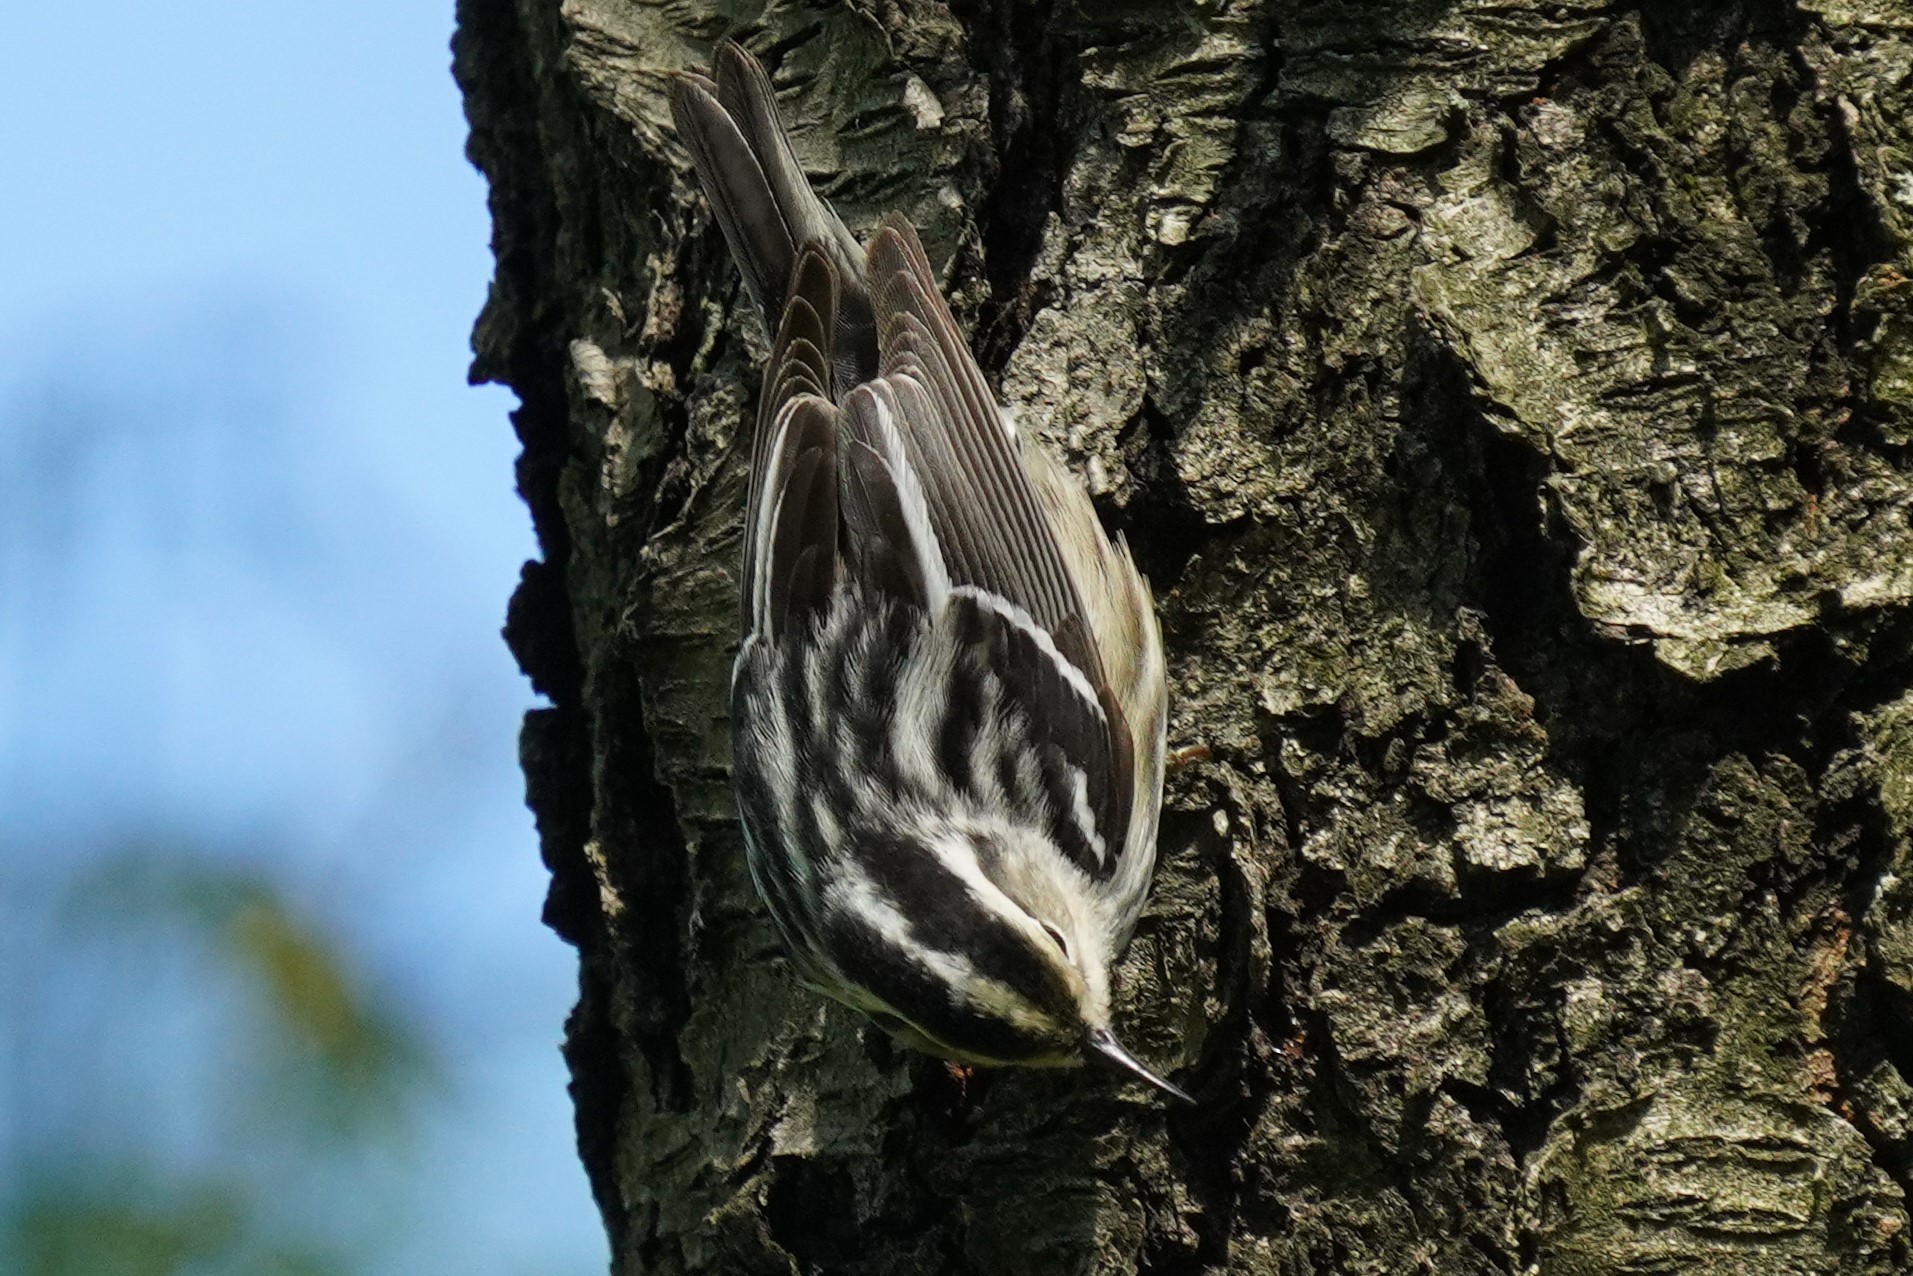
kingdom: Animalia
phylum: Chordata
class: Aves
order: Passeriformes
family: Parulidae
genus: Mniotilta
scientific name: Mniotilta varia
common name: Black-and-white warbler
